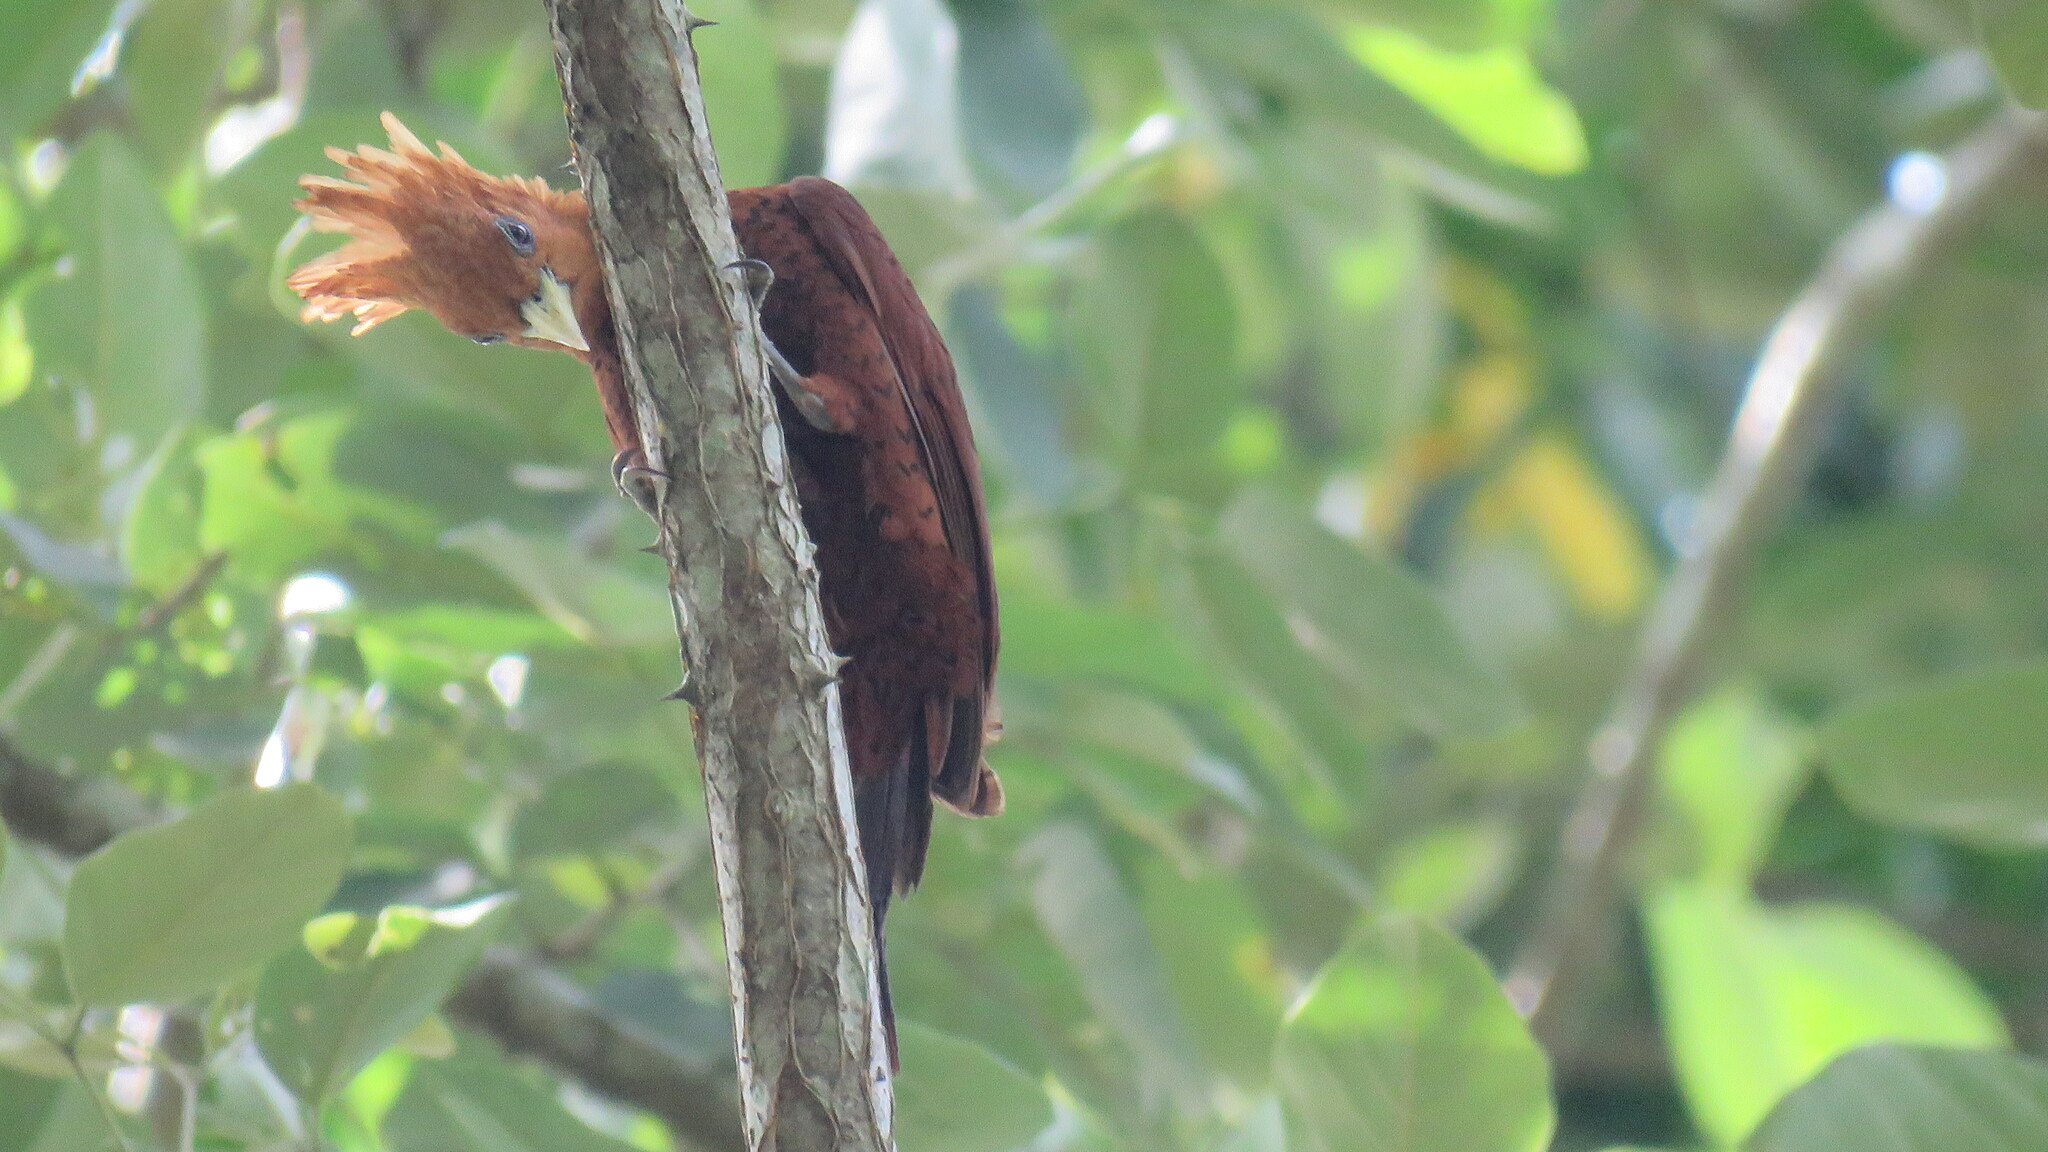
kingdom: Animalia
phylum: Chordata
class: Aves
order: Piciformes
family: Picidae
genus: Celeus
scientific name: Celeus castaneus
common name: Chestnut-colored woodpecker
